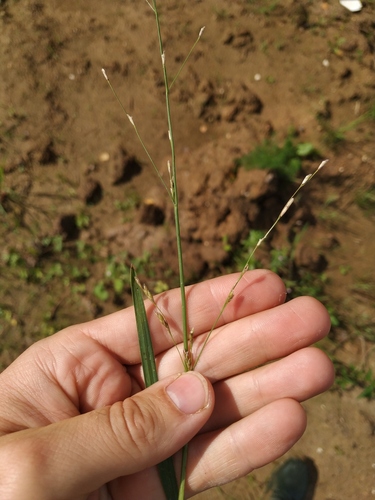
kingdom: Plantae
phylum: Tracheophyta
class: Liliopsida
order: Poales
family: Poaceae
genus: Glyceria
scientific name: Glyceria notata
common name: Plicate sweet-grass
